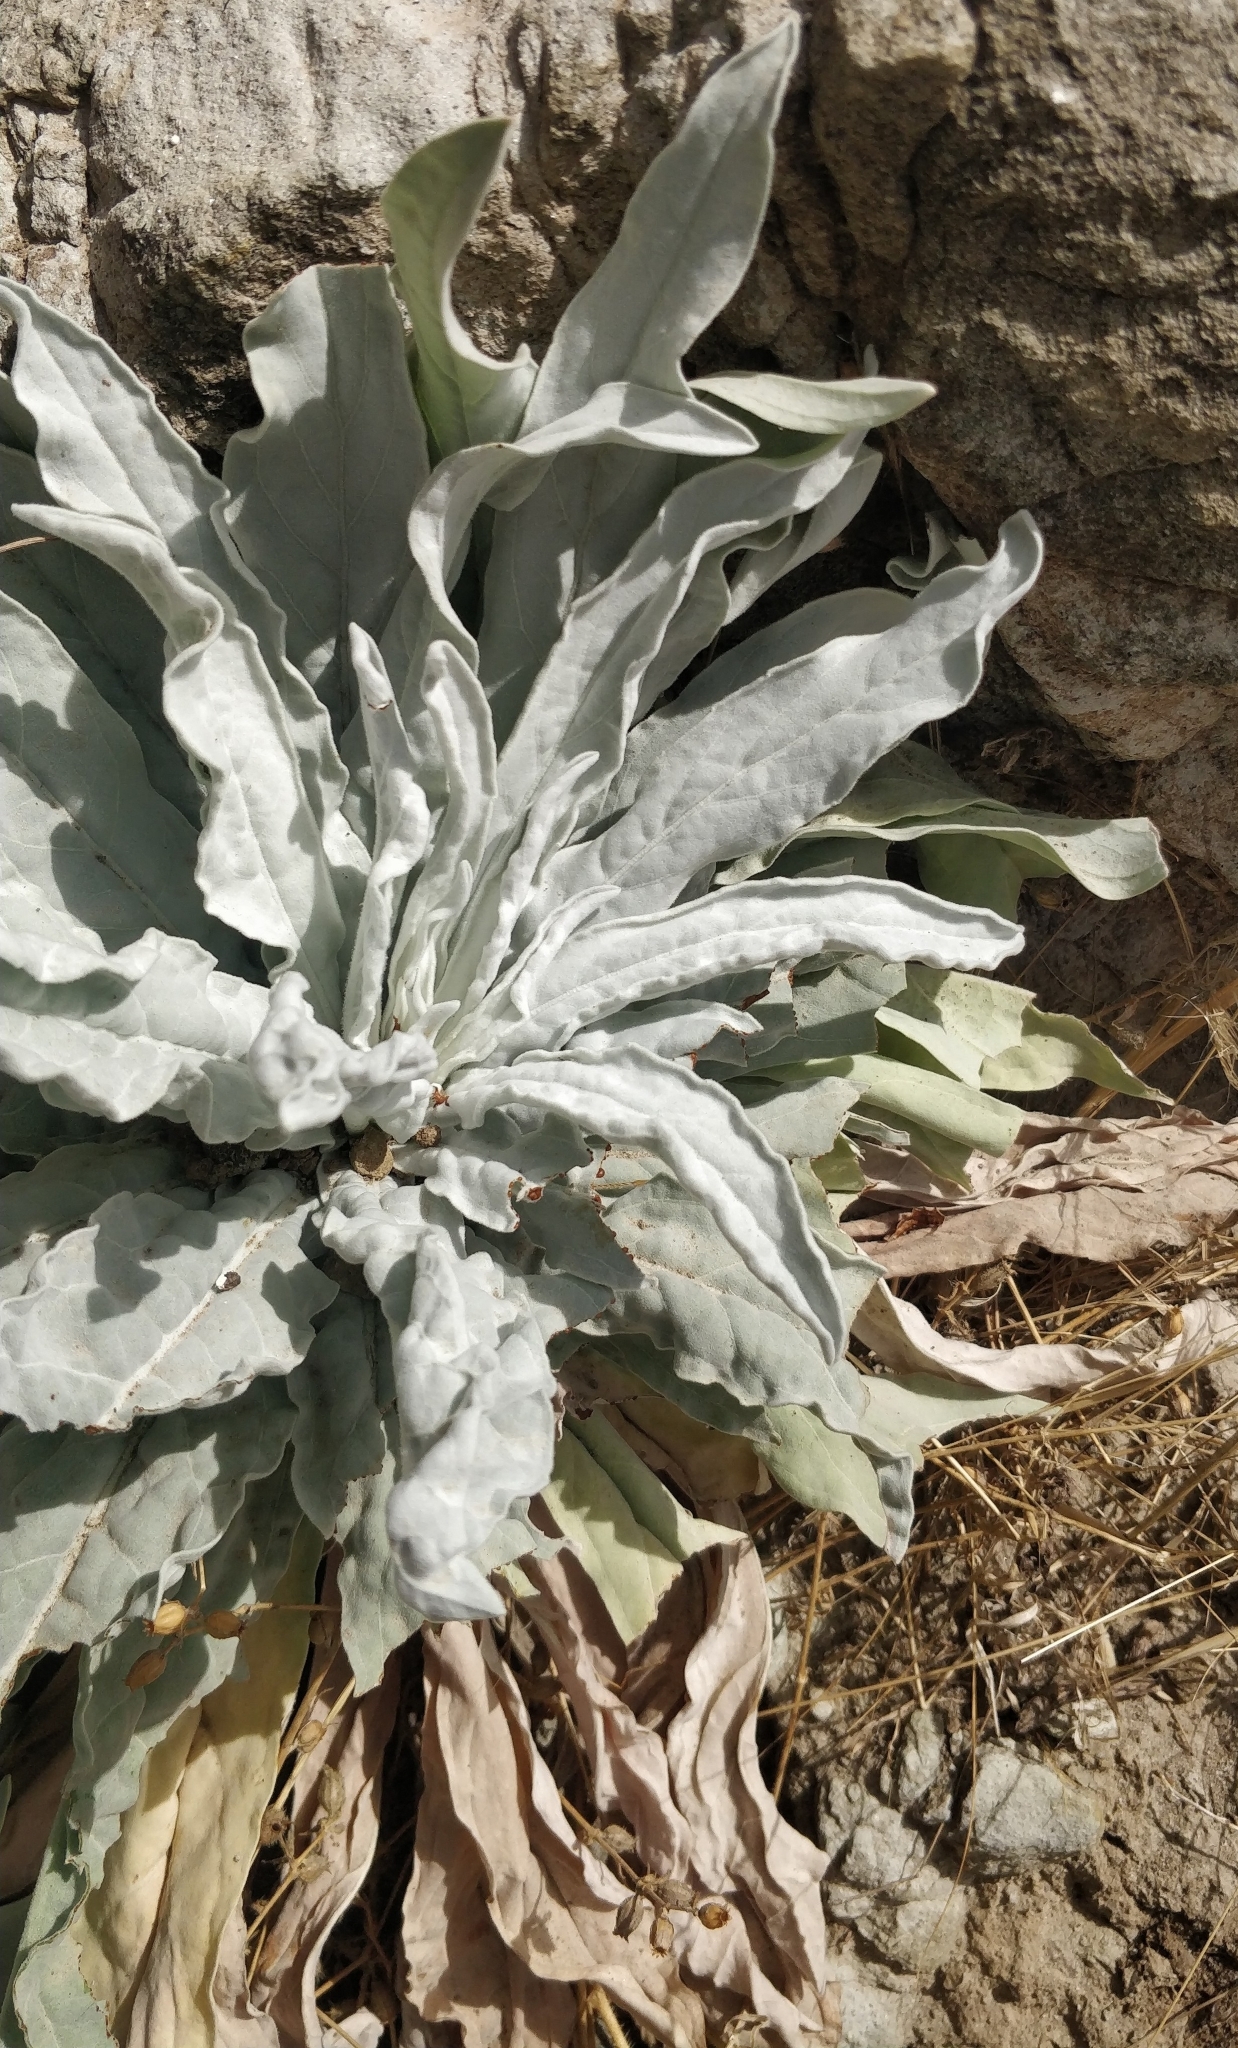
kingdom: Plantae
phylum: Tracheophyta
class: Magnoliopsida
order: Brassicales
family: Brassicaceae
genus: Matthiola
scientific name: Matthiola maderensis
